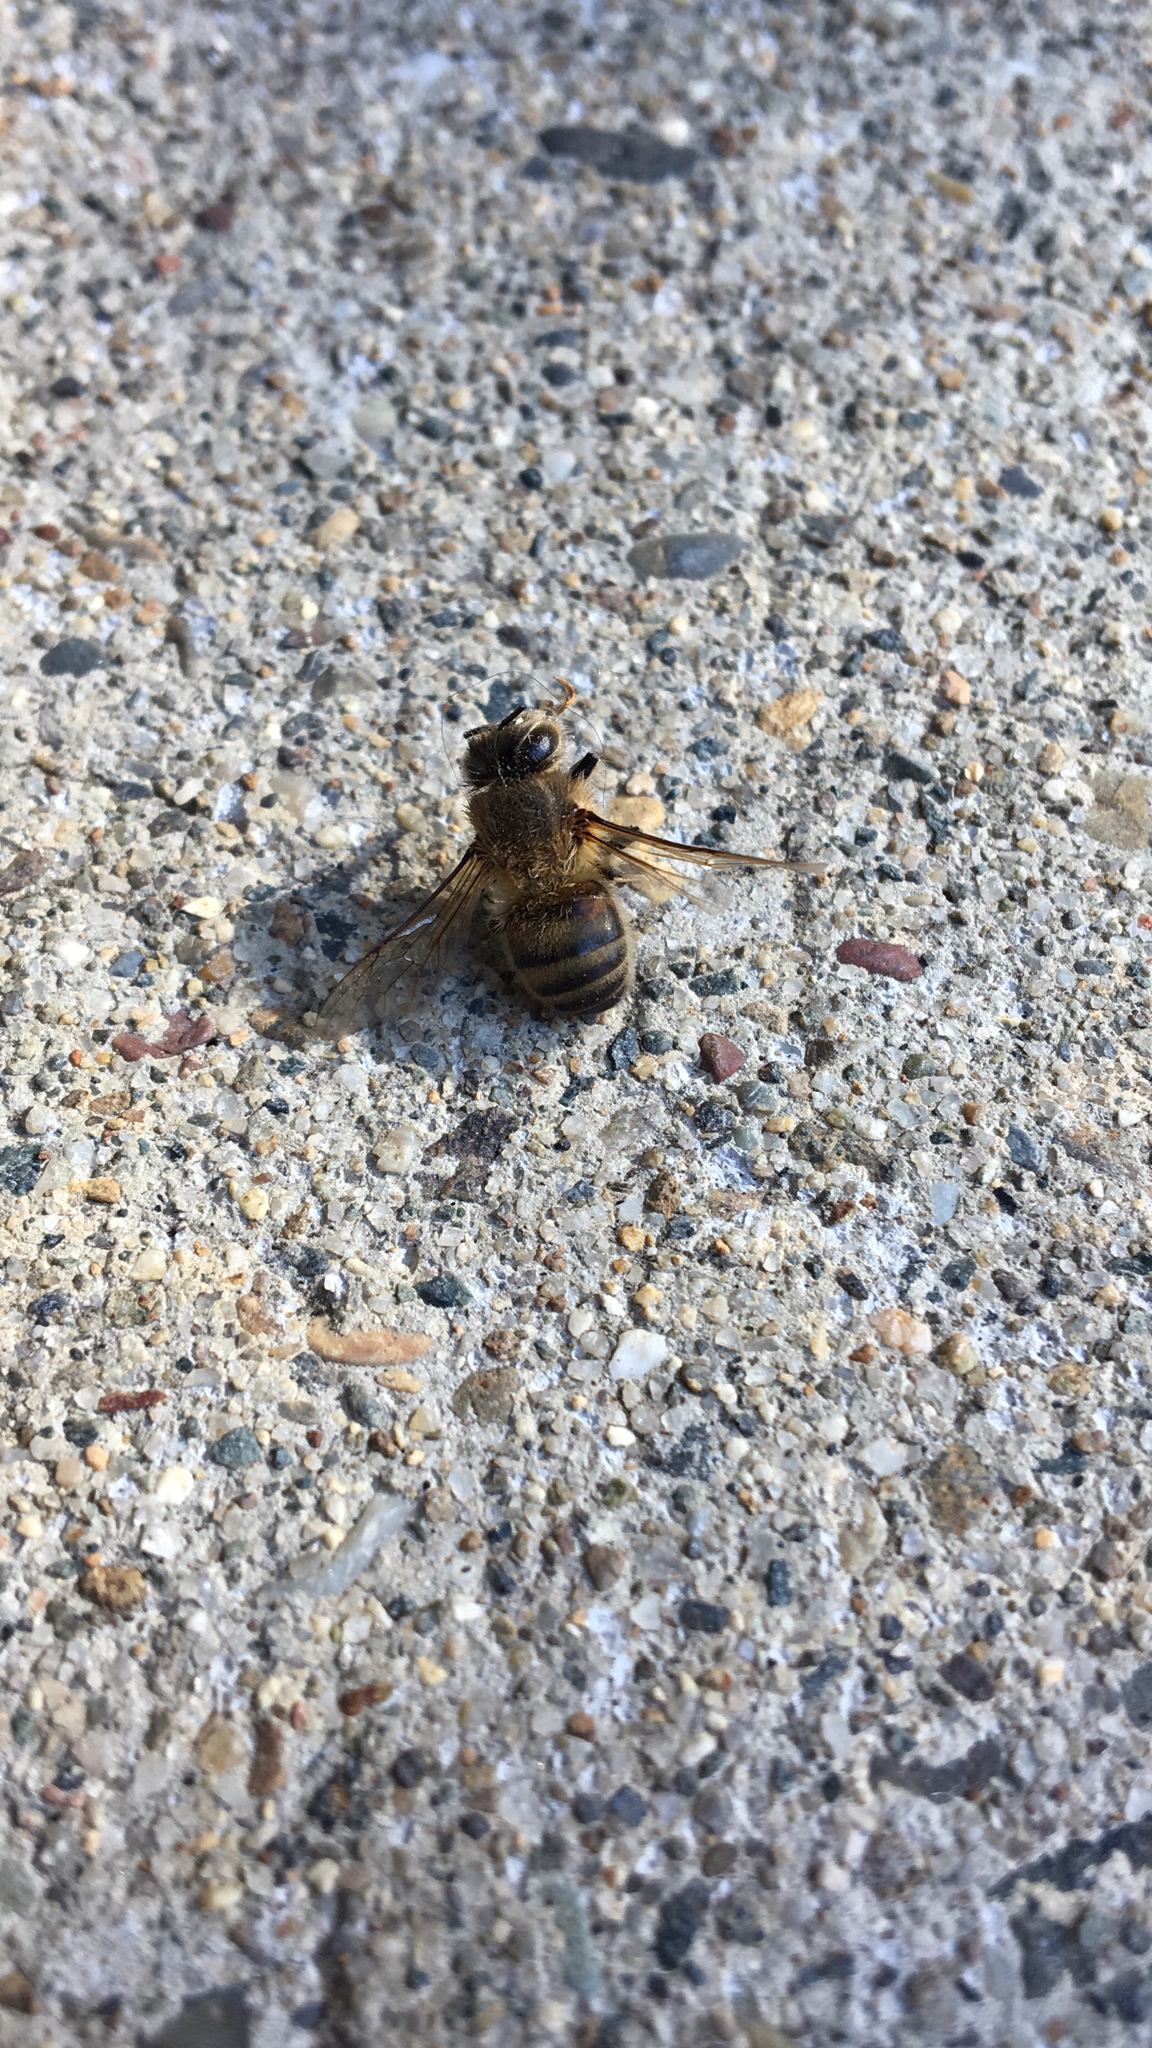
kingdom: Animalia
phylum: Arthropoda
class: Insecta
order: Hymenoptera
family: Apidae
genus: Apis
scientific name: Apis mellifera
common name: Honey bee
